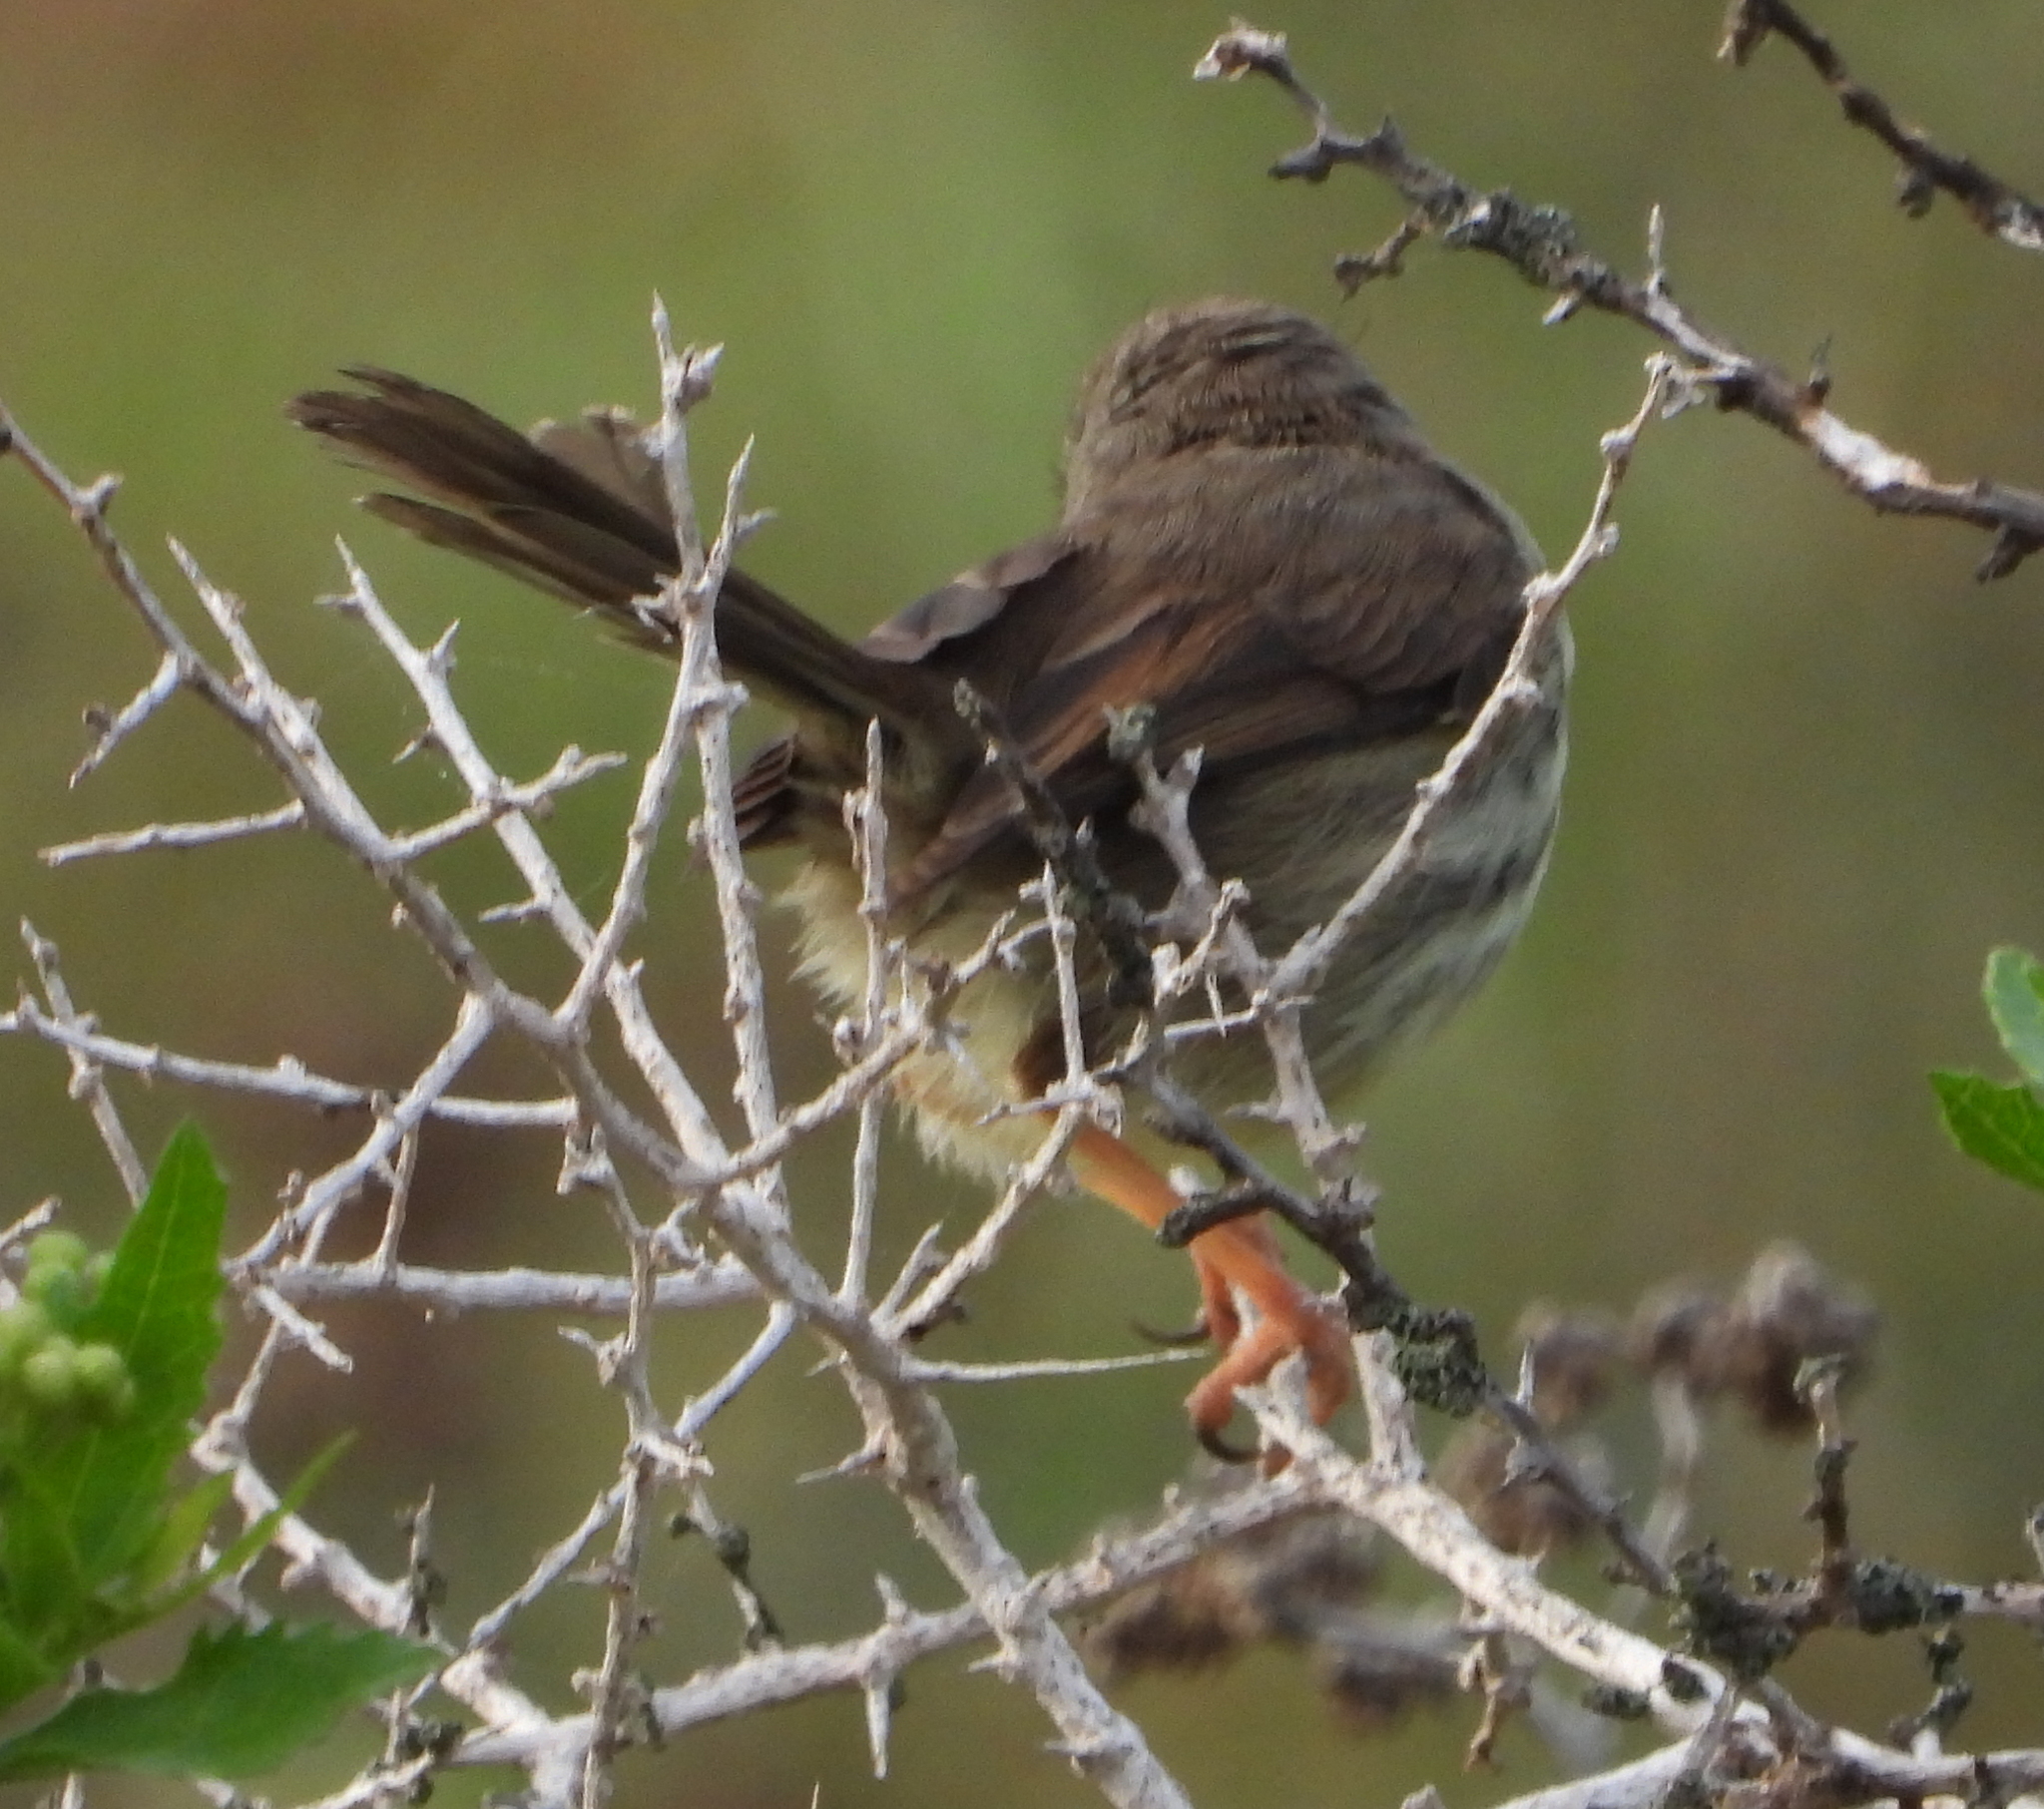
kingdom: Animalia
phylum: Chordata
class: Aves
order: Passeriformes
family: Cisticolidae
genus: Prinia
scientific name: Prinia maculosa
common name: Karoo prinia
